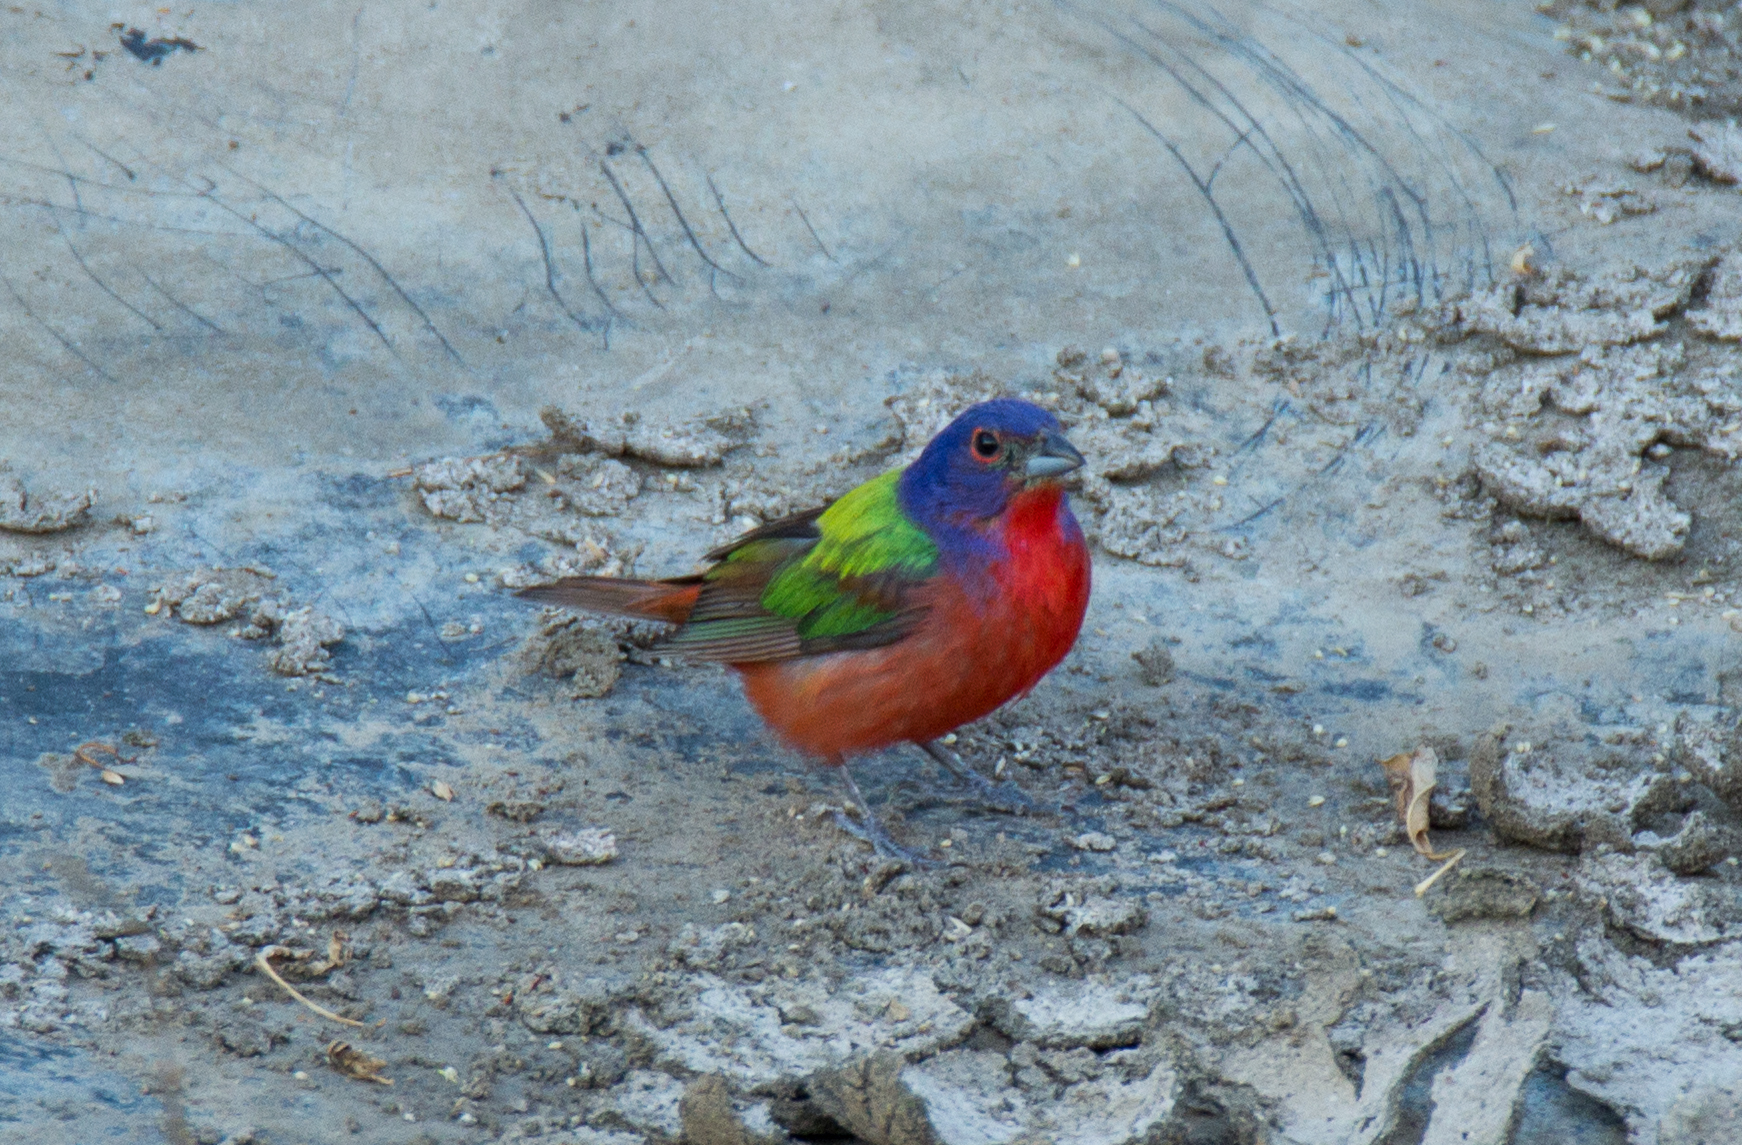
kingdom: Animalia
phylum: Chordata
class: Aves
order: Passeriformes
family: Cardinalidae
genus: Passerina
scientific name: Passerina ciris
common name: Painted bunting
